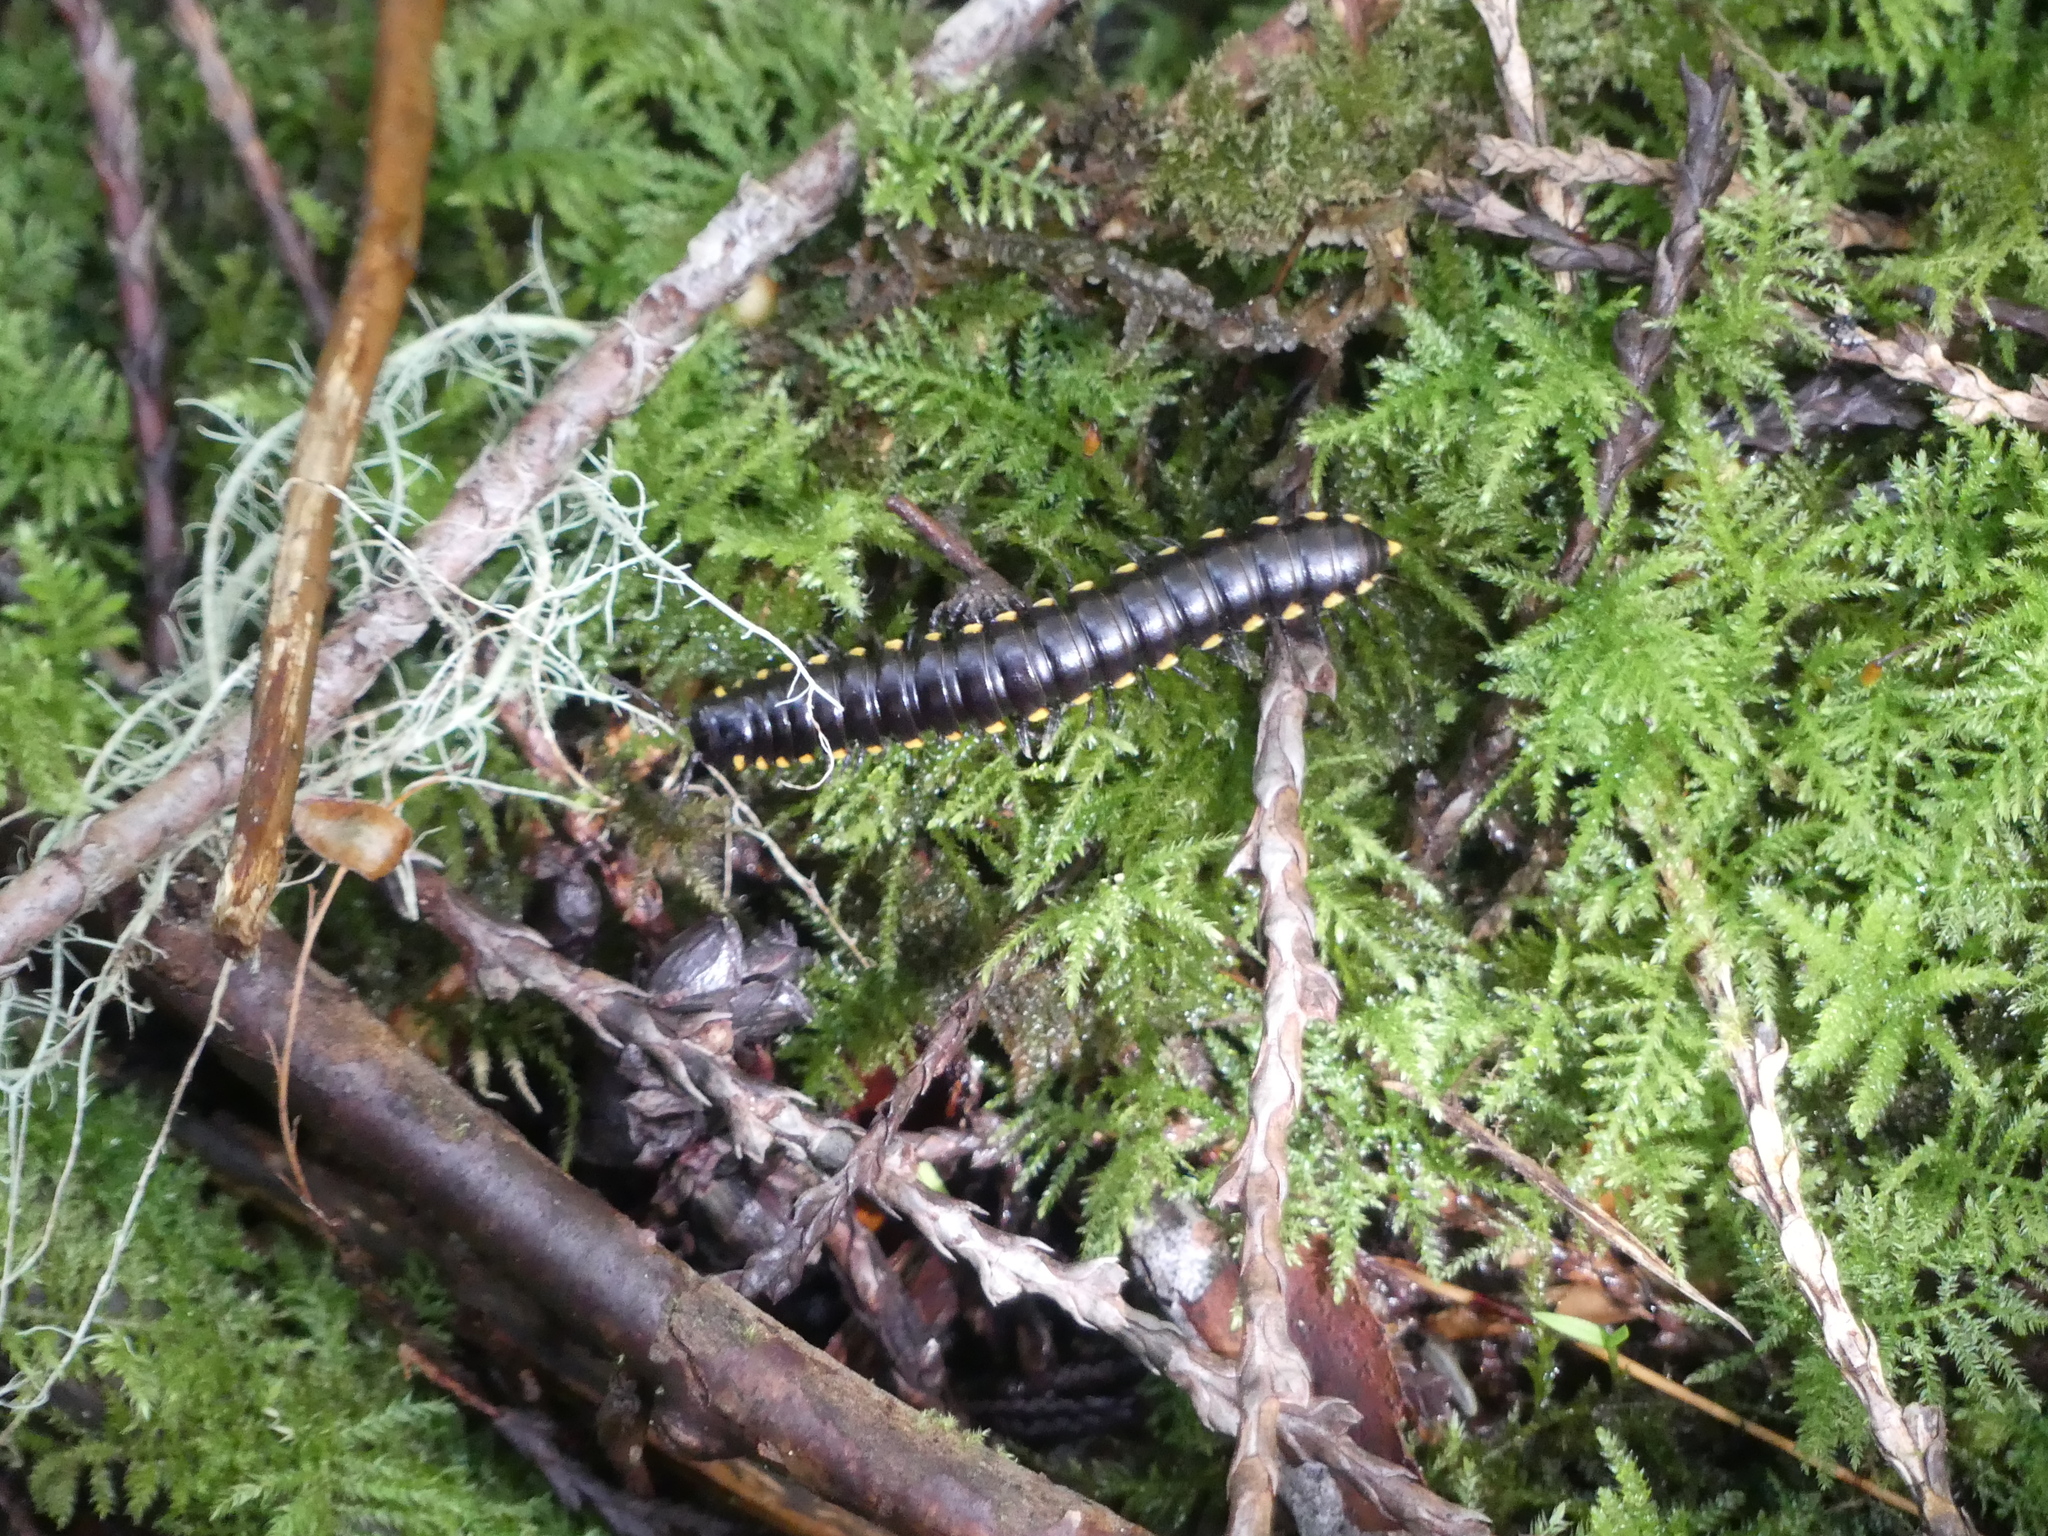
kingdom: Animalia
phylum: Arthropoda
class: Diplopoda
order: Polydesmida
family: Xystodesmidae
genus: Harpaphe
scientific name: Harpaphe haydeniana
